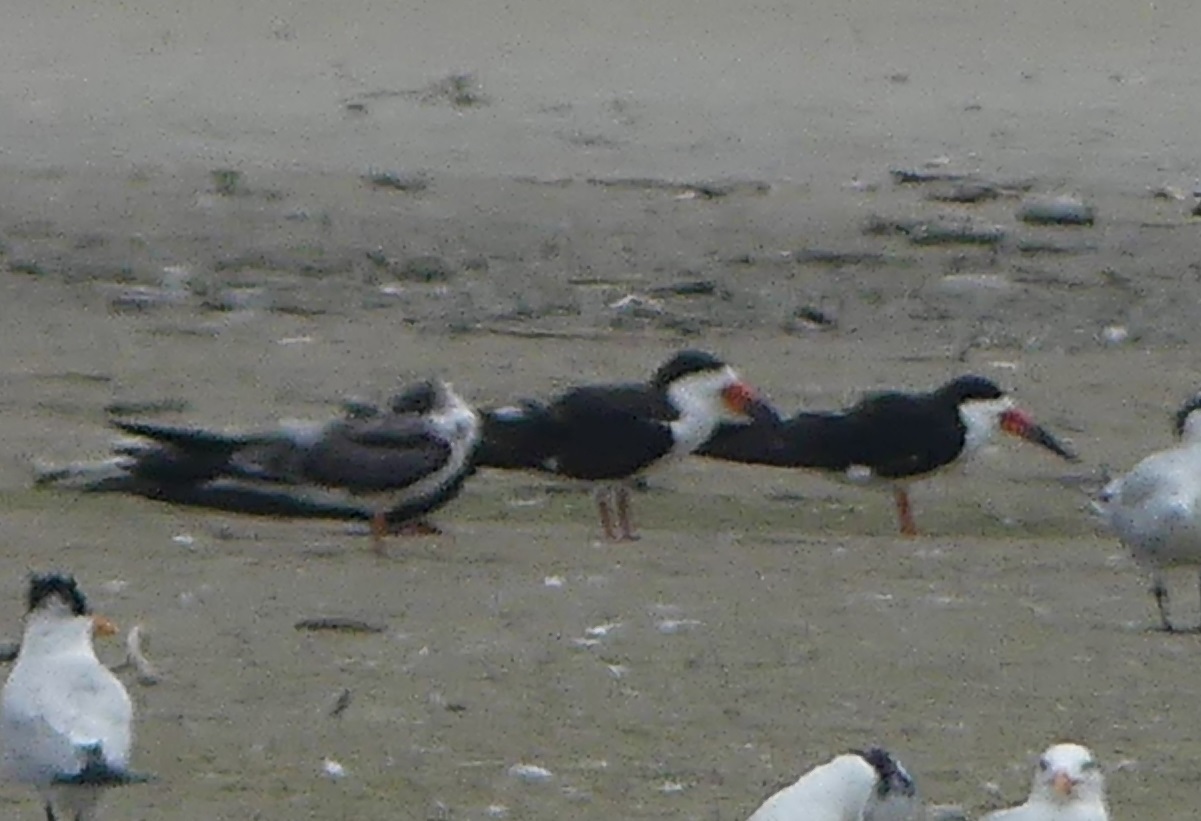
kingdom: Animalia
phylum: Chordata
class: Aves
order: Charadriiformes
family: Laridae
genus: Rynchops
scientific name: Rynchops niger
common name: Black skimmer
